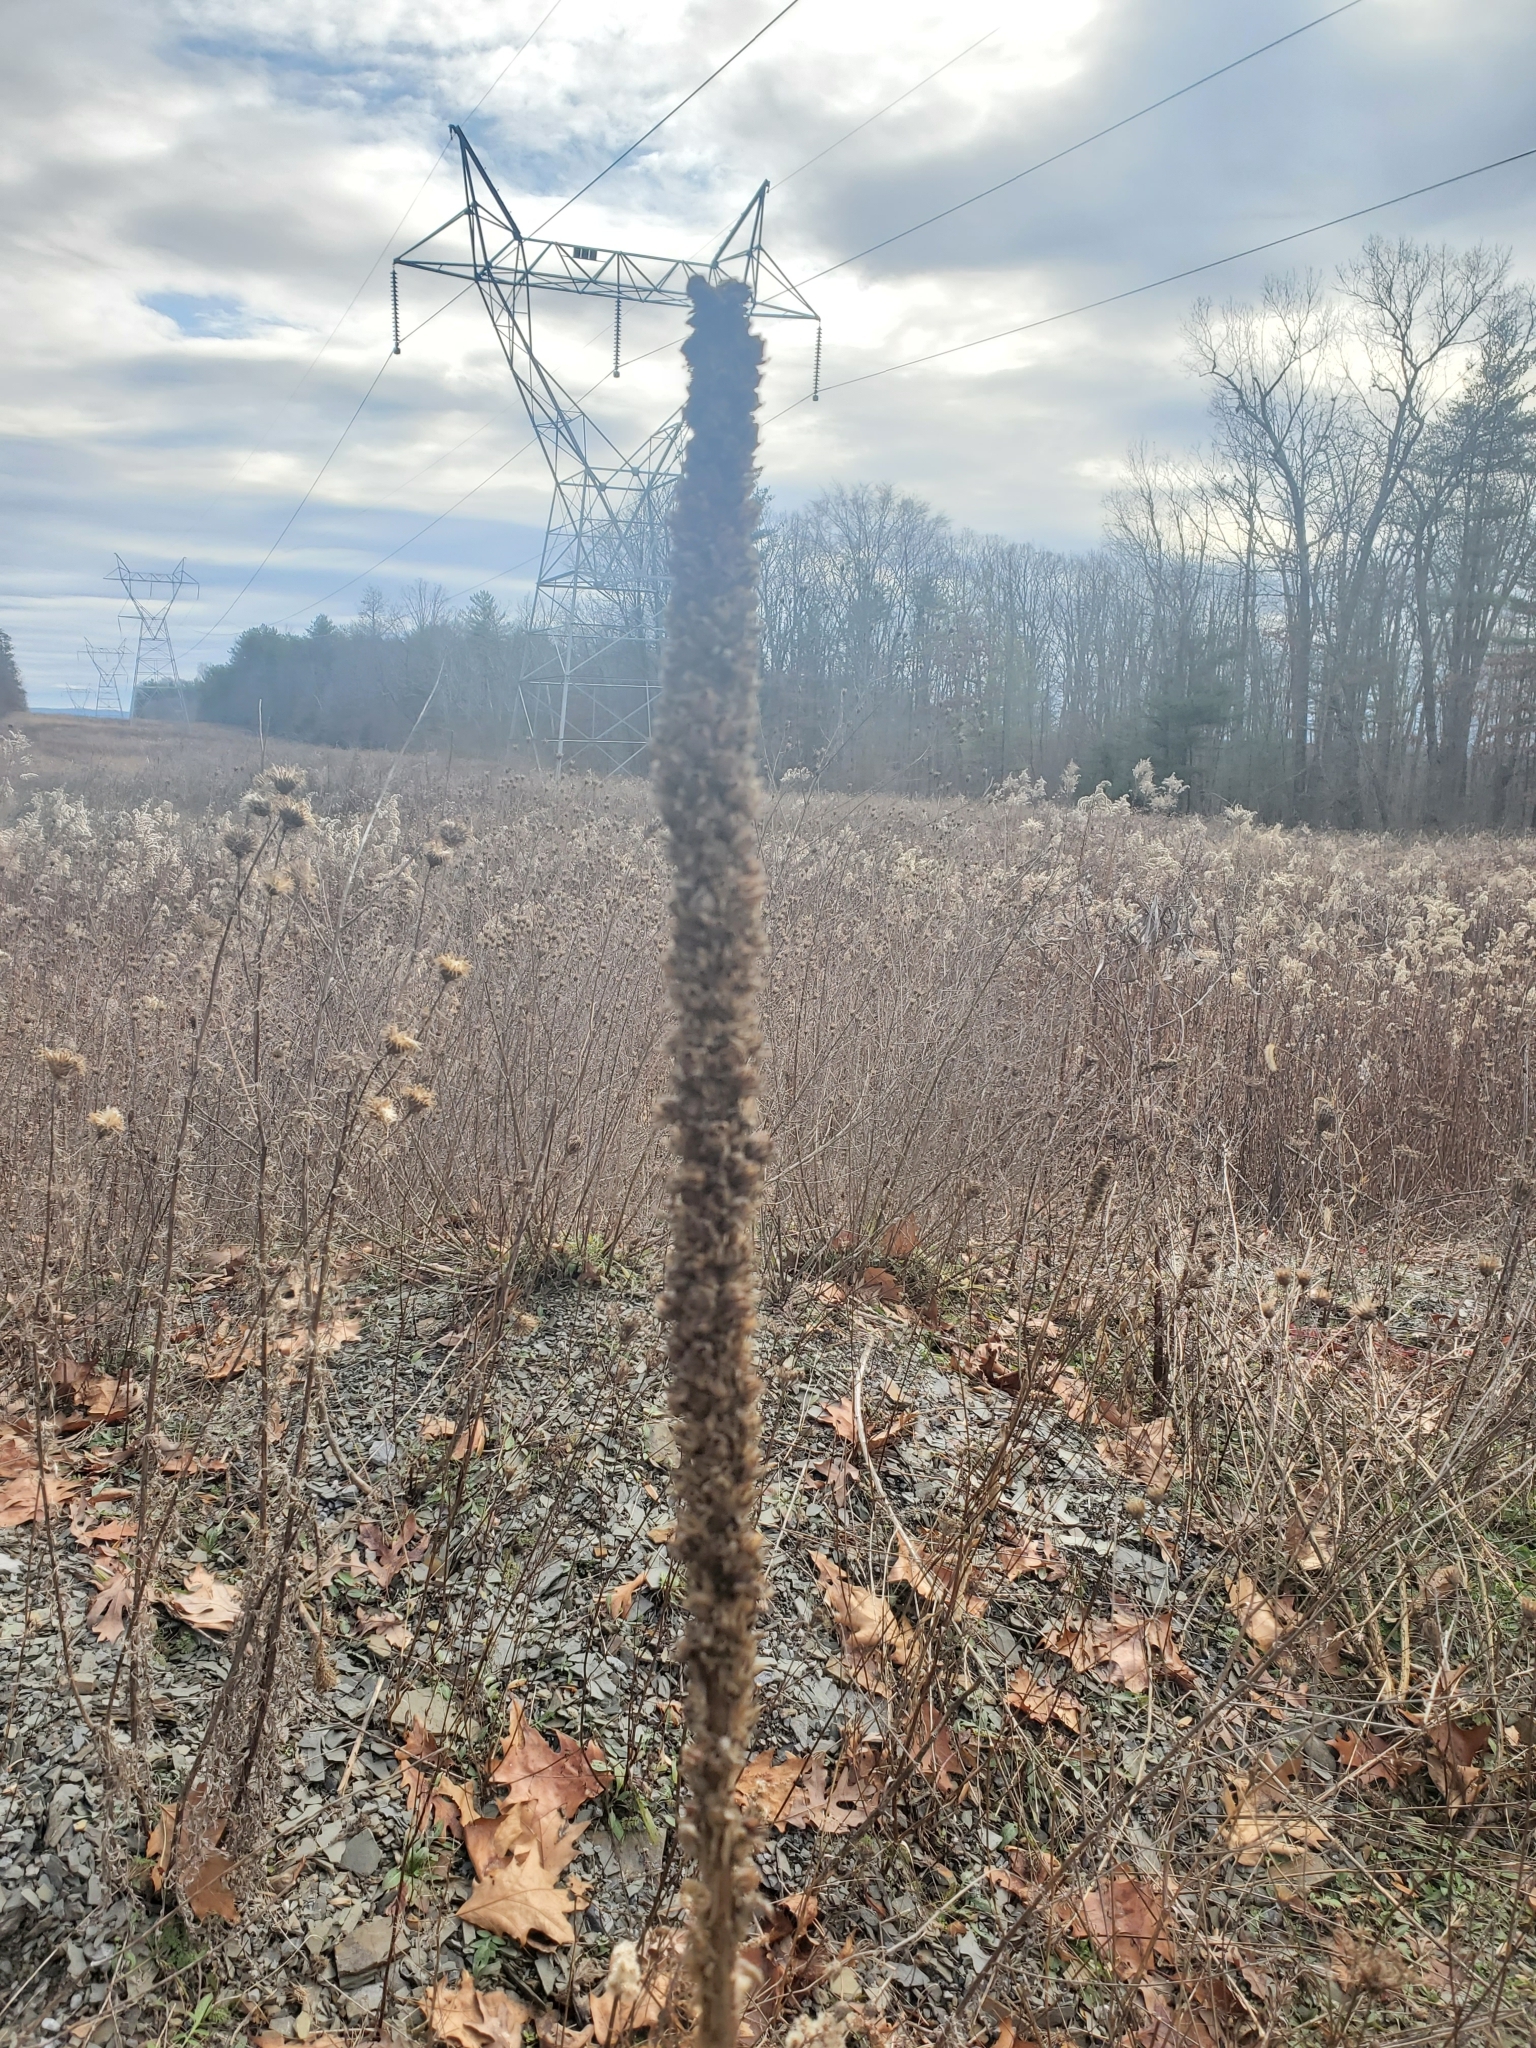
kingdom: Plantae
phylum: Tracheophyta
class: Magnoliopsida
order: Lamiales
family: Scrophulariaceae
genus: Verbascum
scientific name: Verbascum thapsus
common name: Common mullein
